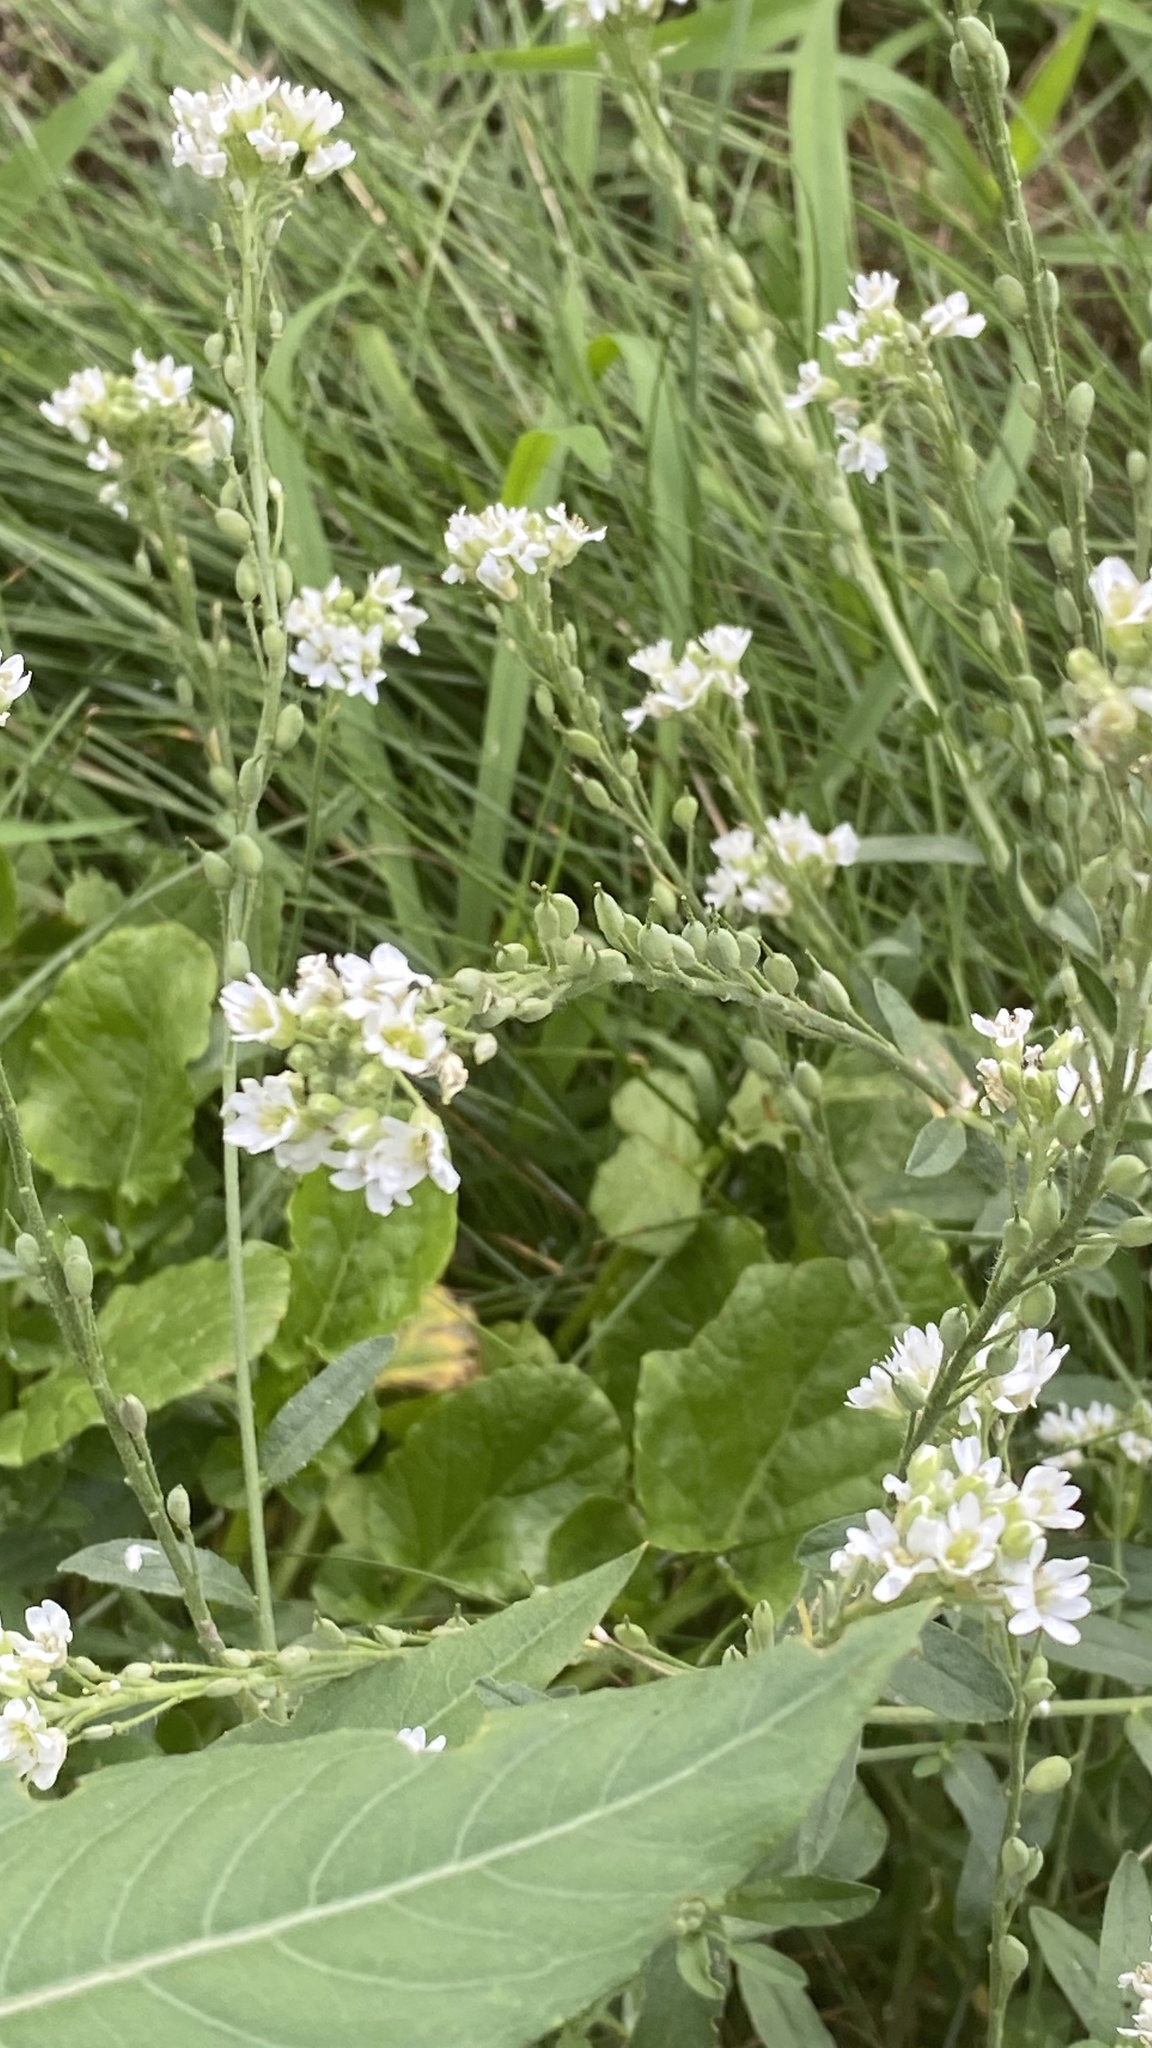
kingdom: Plantae
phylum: Tracheophyta
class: Magnoliopsida
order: Brassicales
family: Brassicaceae
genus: Berteroa
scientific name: Berteroa incana
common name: Hoary alison
